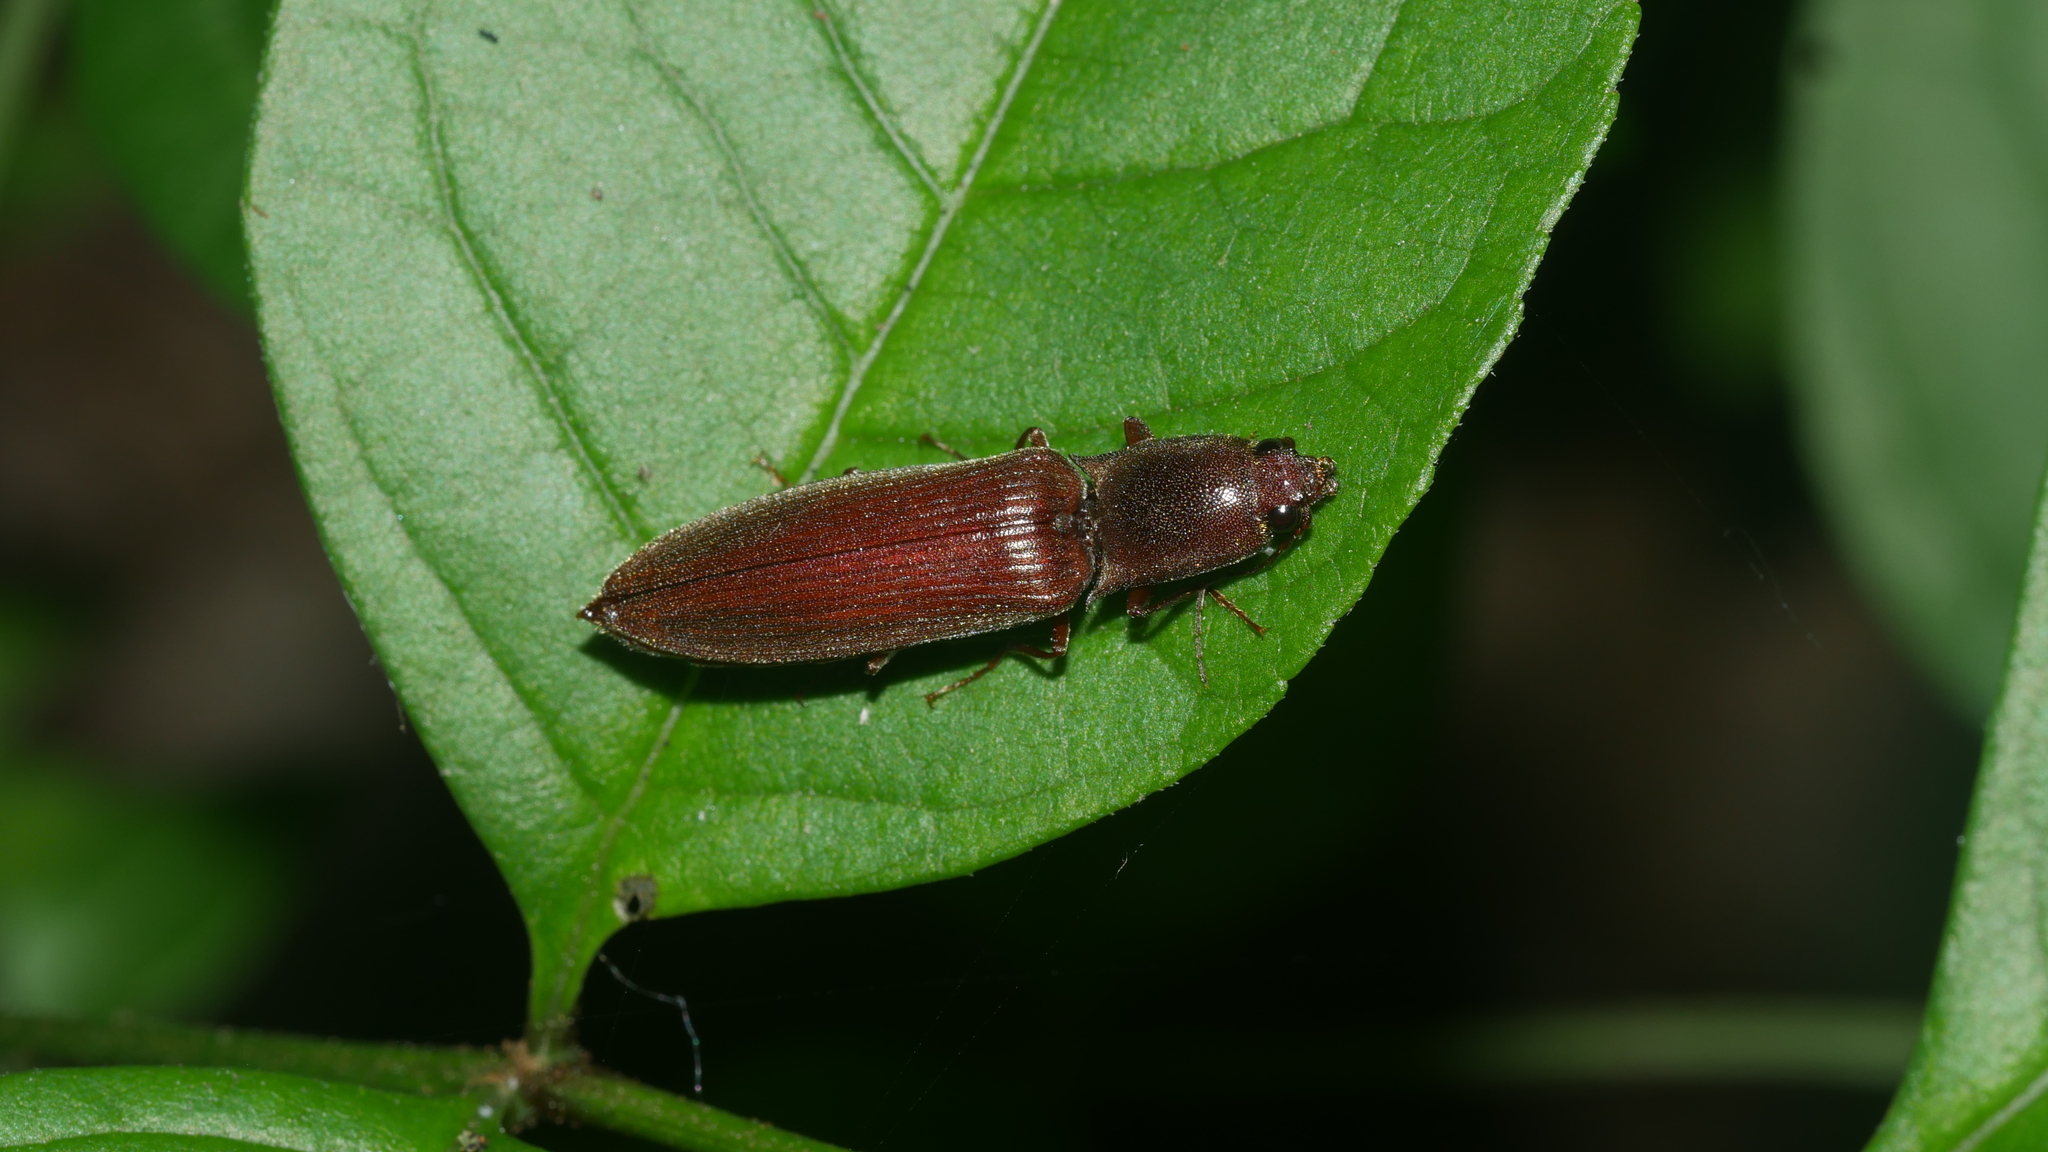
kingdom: Animalia
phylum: Arthropoda
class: Insecta
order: Coleoptera
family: Elateridae
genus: Proludius
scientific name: Proludius pyrros
